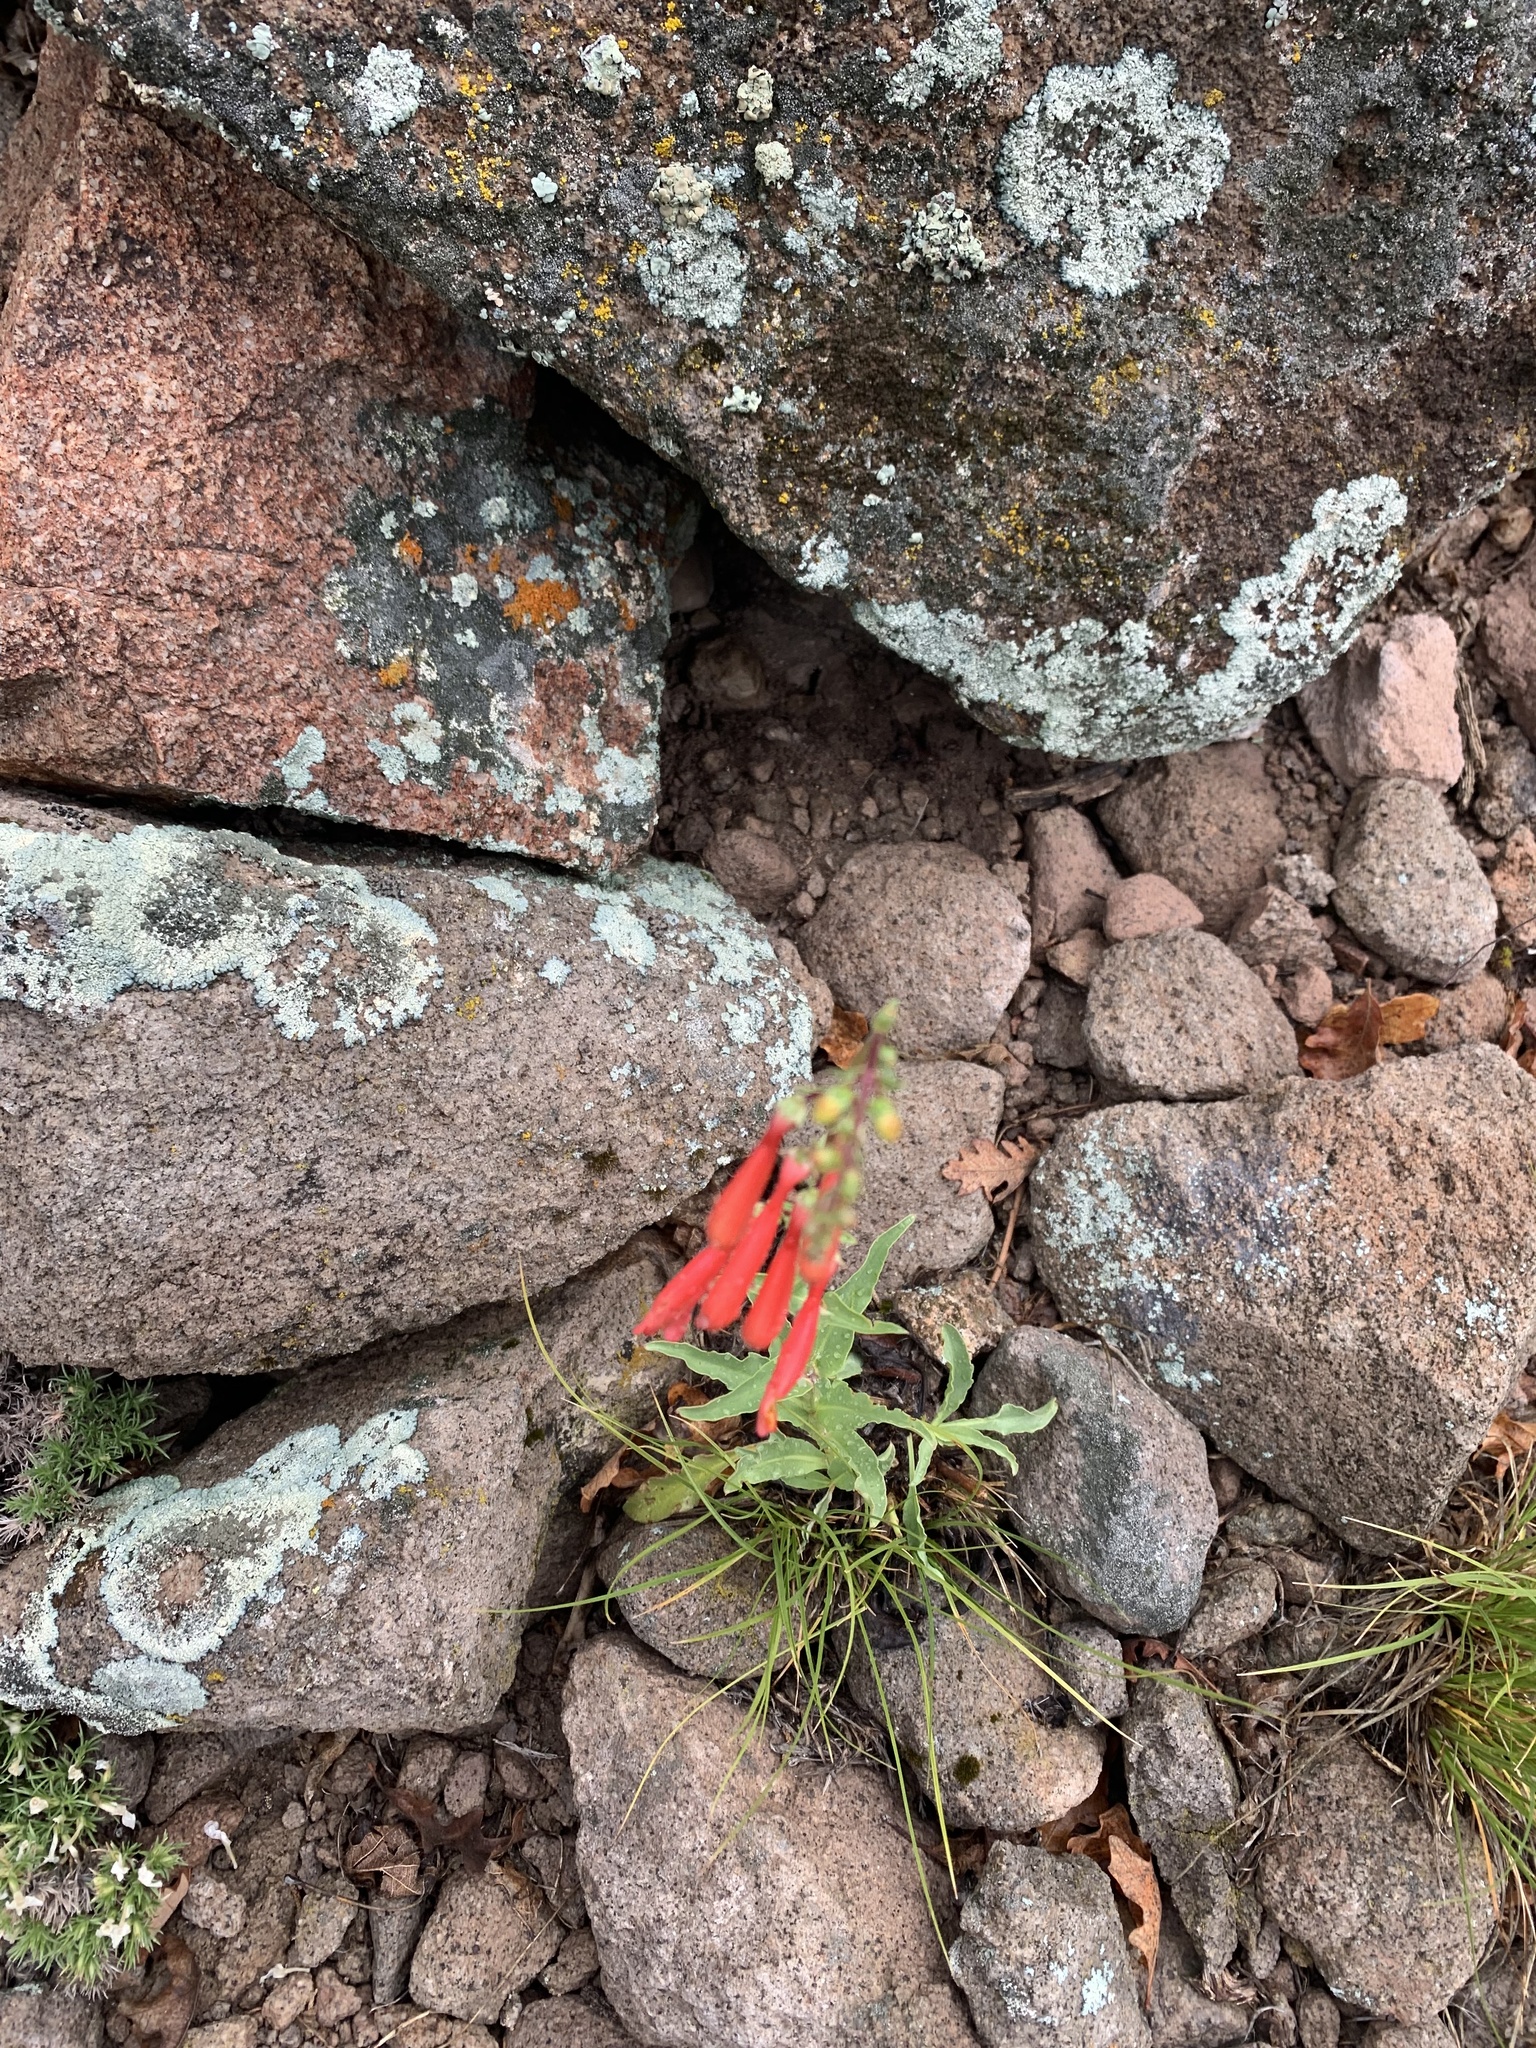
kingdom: Plantae
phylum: Tracheophyta
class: Magnoliopsida
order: Lamiales
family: Plantaginaceae
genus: Penstemon
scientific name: Penstemon eatonii
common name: Eaton's penstemon
